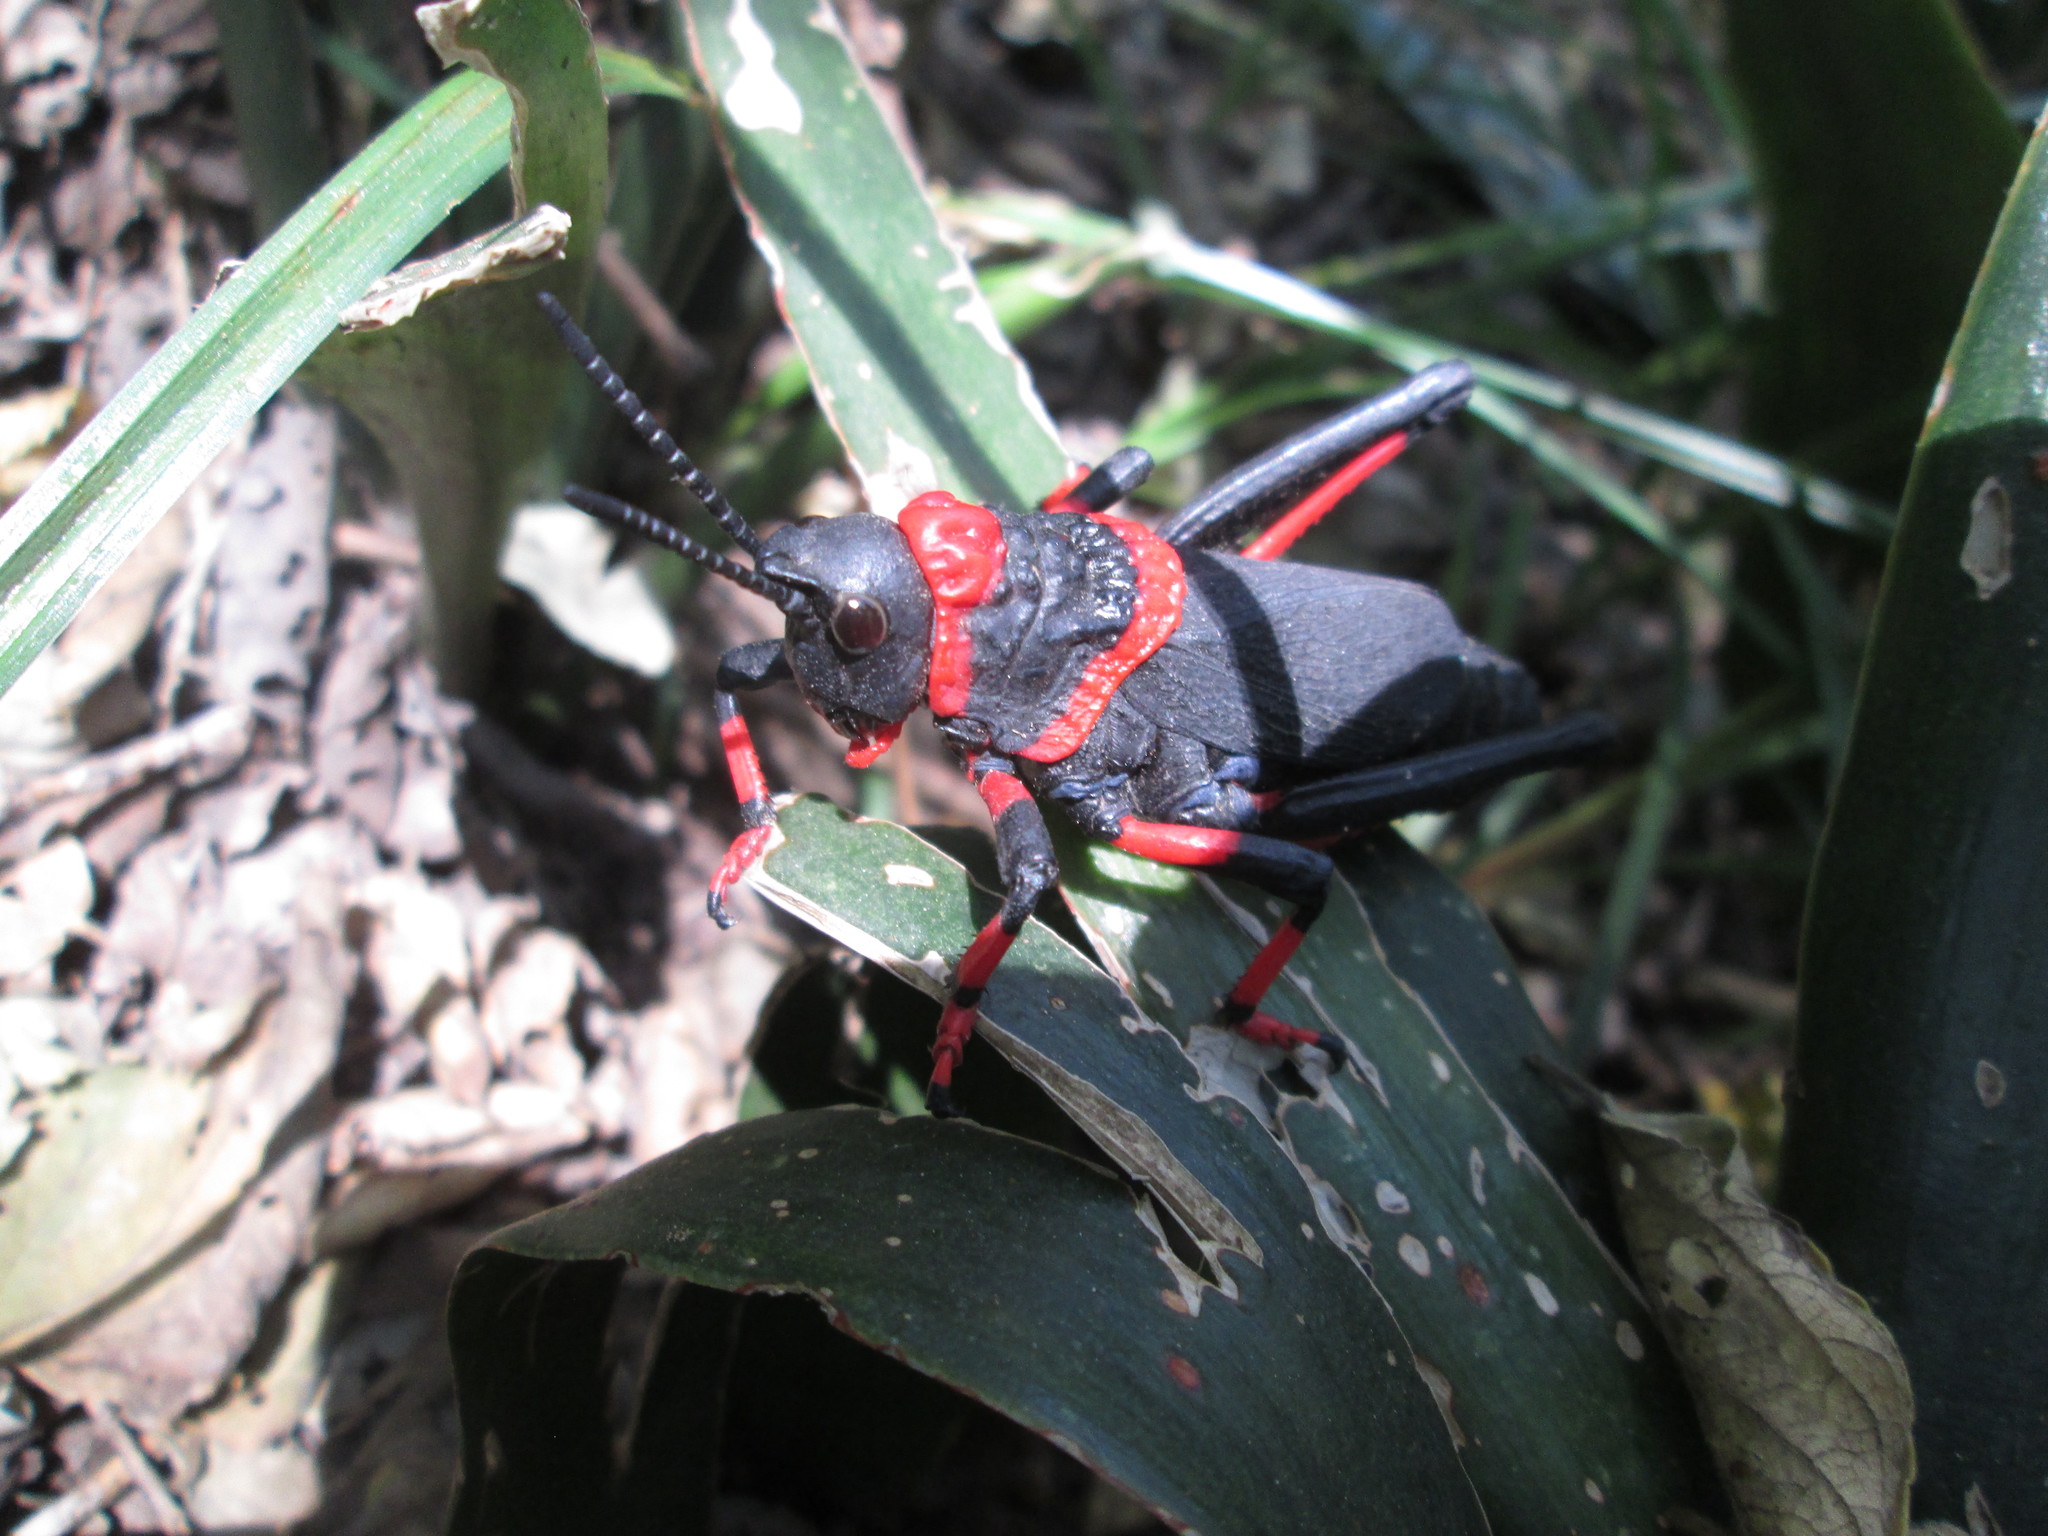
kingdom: Animalia
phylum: Arthropoda
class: Insecta
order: Orthoptera
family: Pyrgomorphidae
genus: Dictyophorus
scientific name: Dictyophorus spumans
